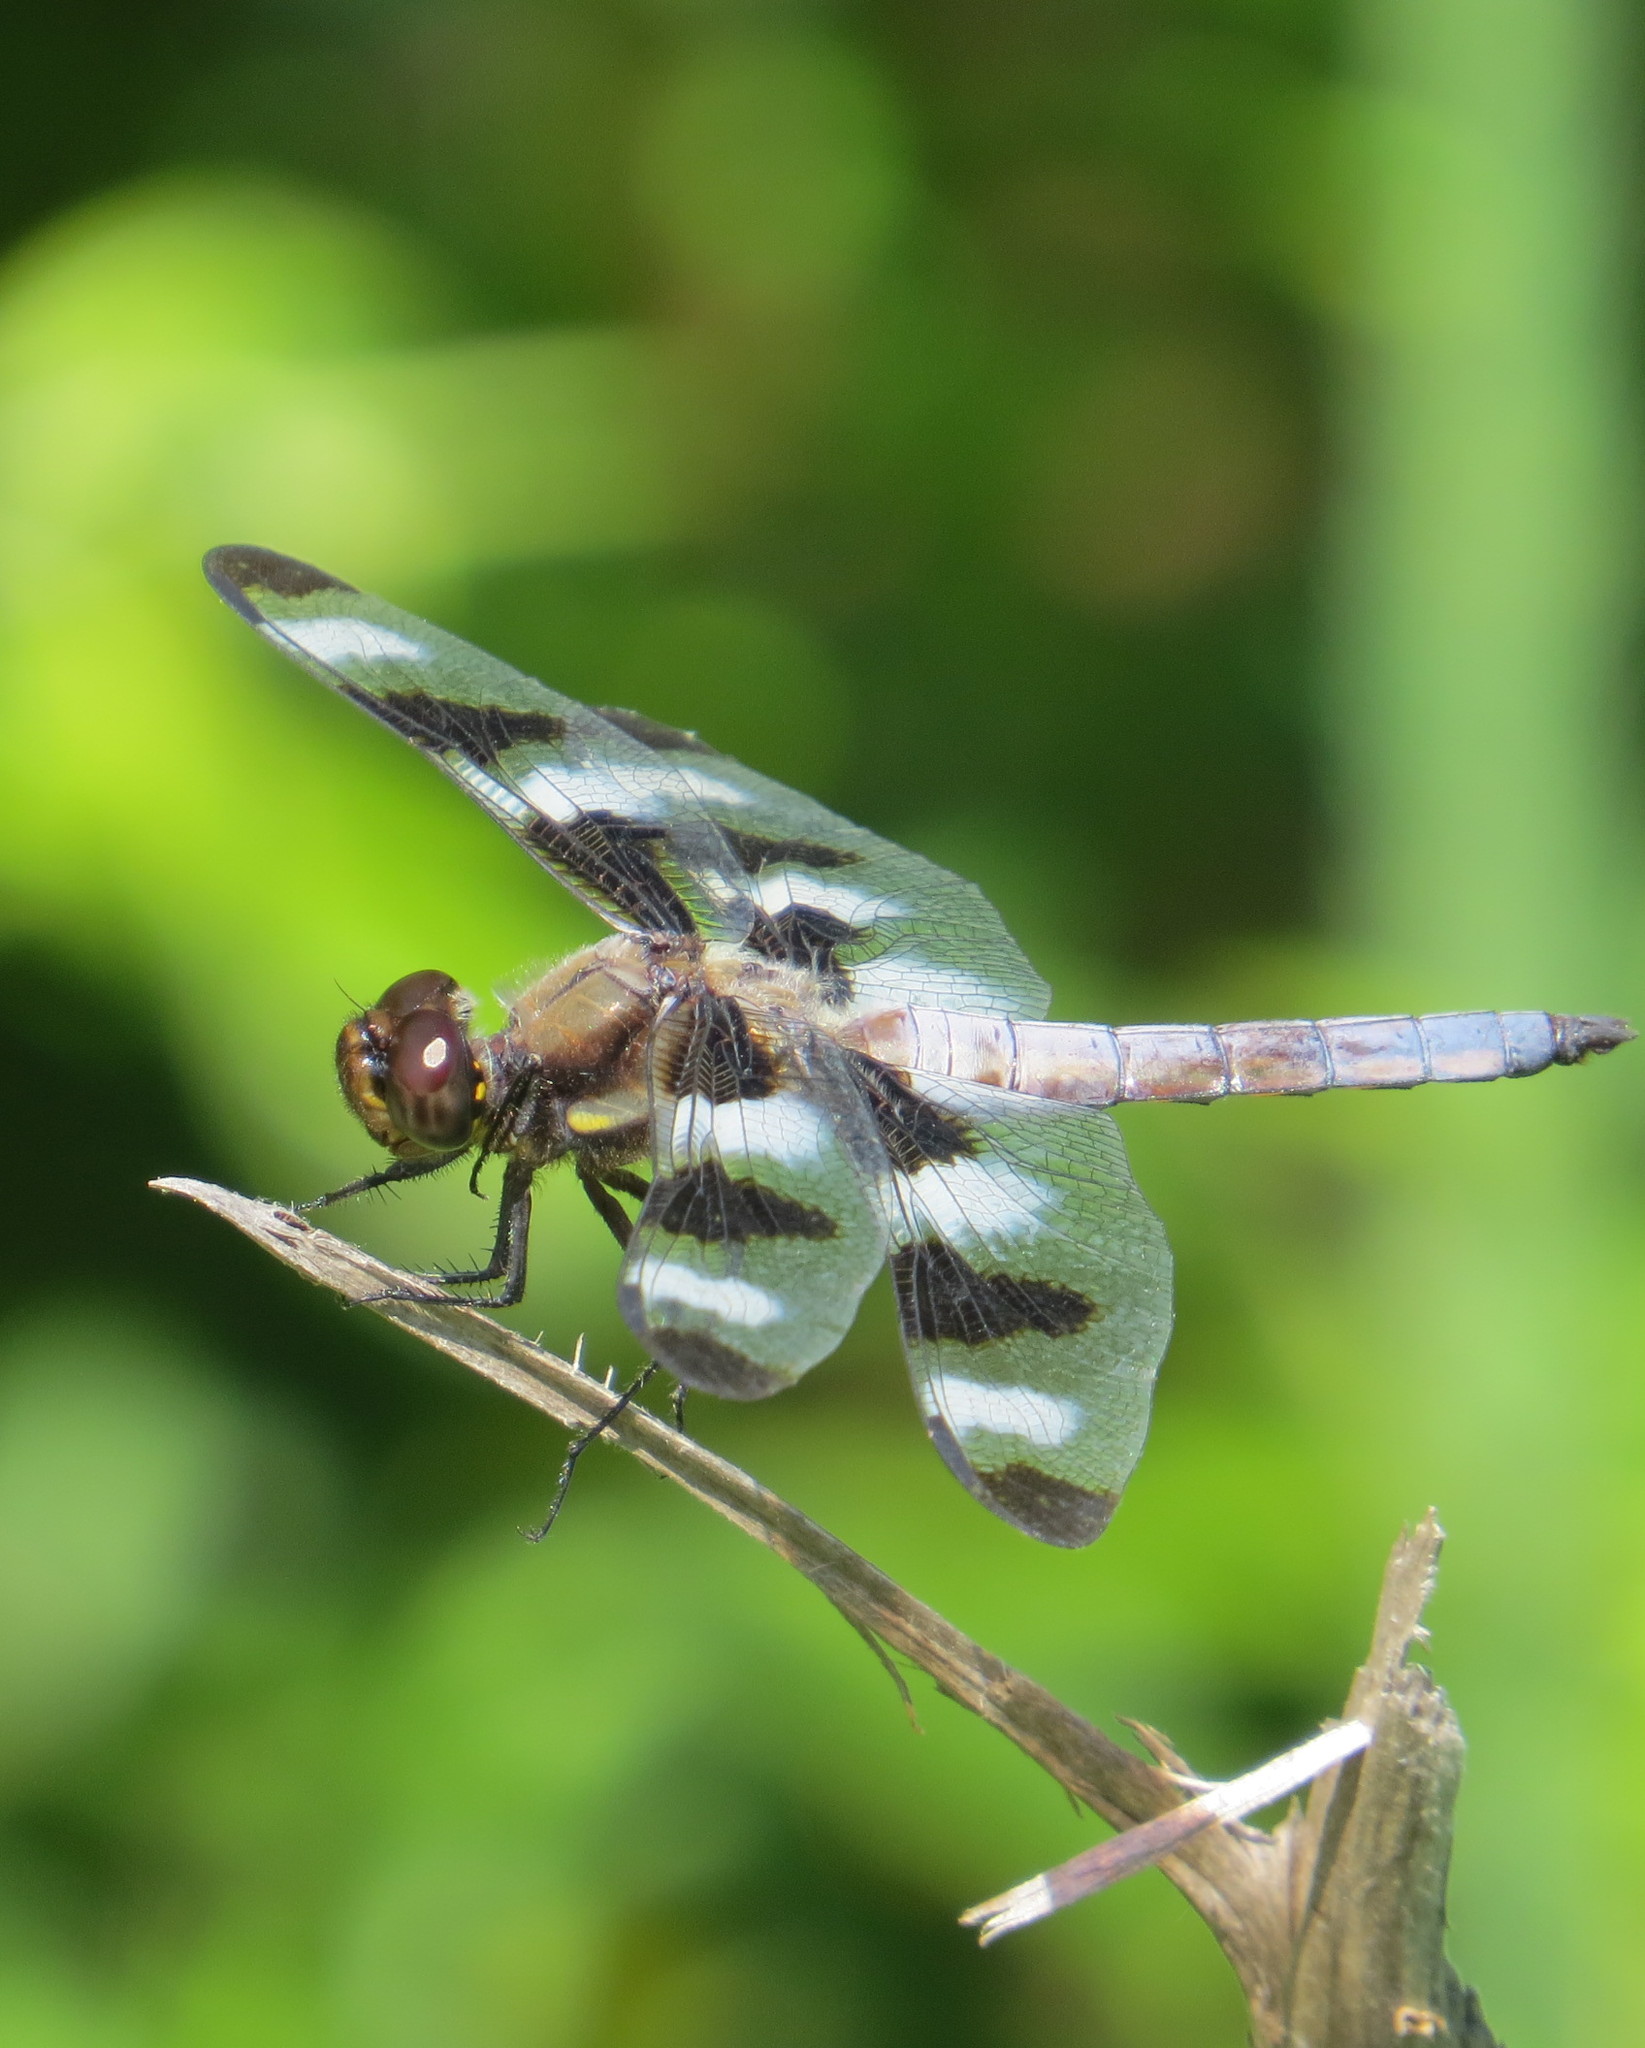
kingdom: Animalia
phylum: Arthropoda
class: Insecta
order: Odonata
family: Libellulidae
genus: Libellula
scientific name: Libellula pulchella
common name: Twelve-spotted skimmer
